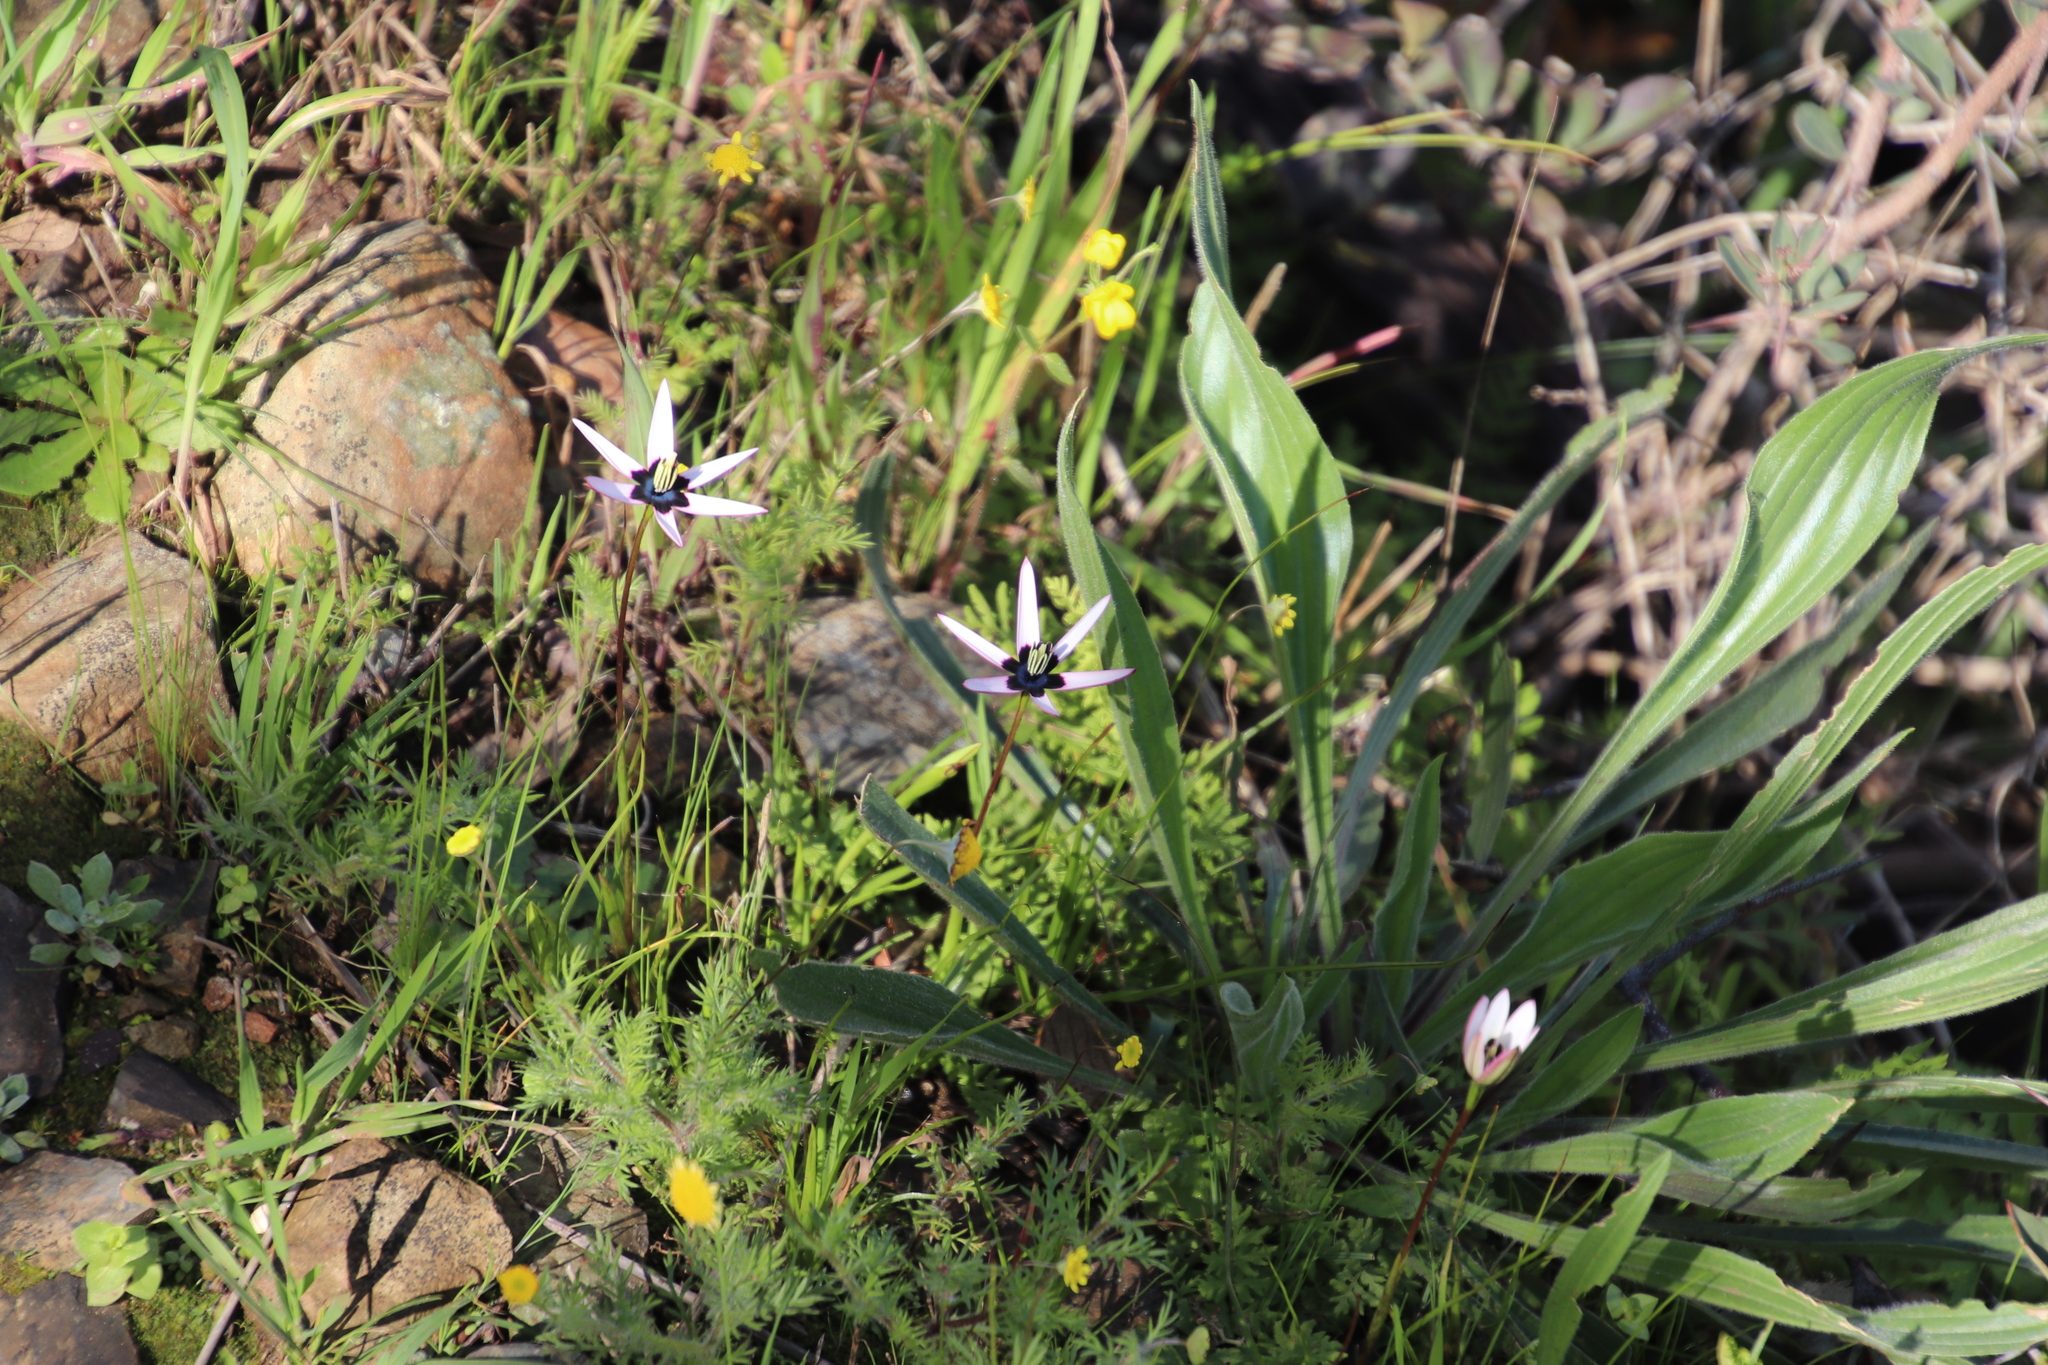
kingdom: Plantae
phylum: Tracheophyta
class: Liliopsida
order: Asparagales
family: Hypoxidaceae
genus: Pauridia
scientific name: Pauridia capensis
